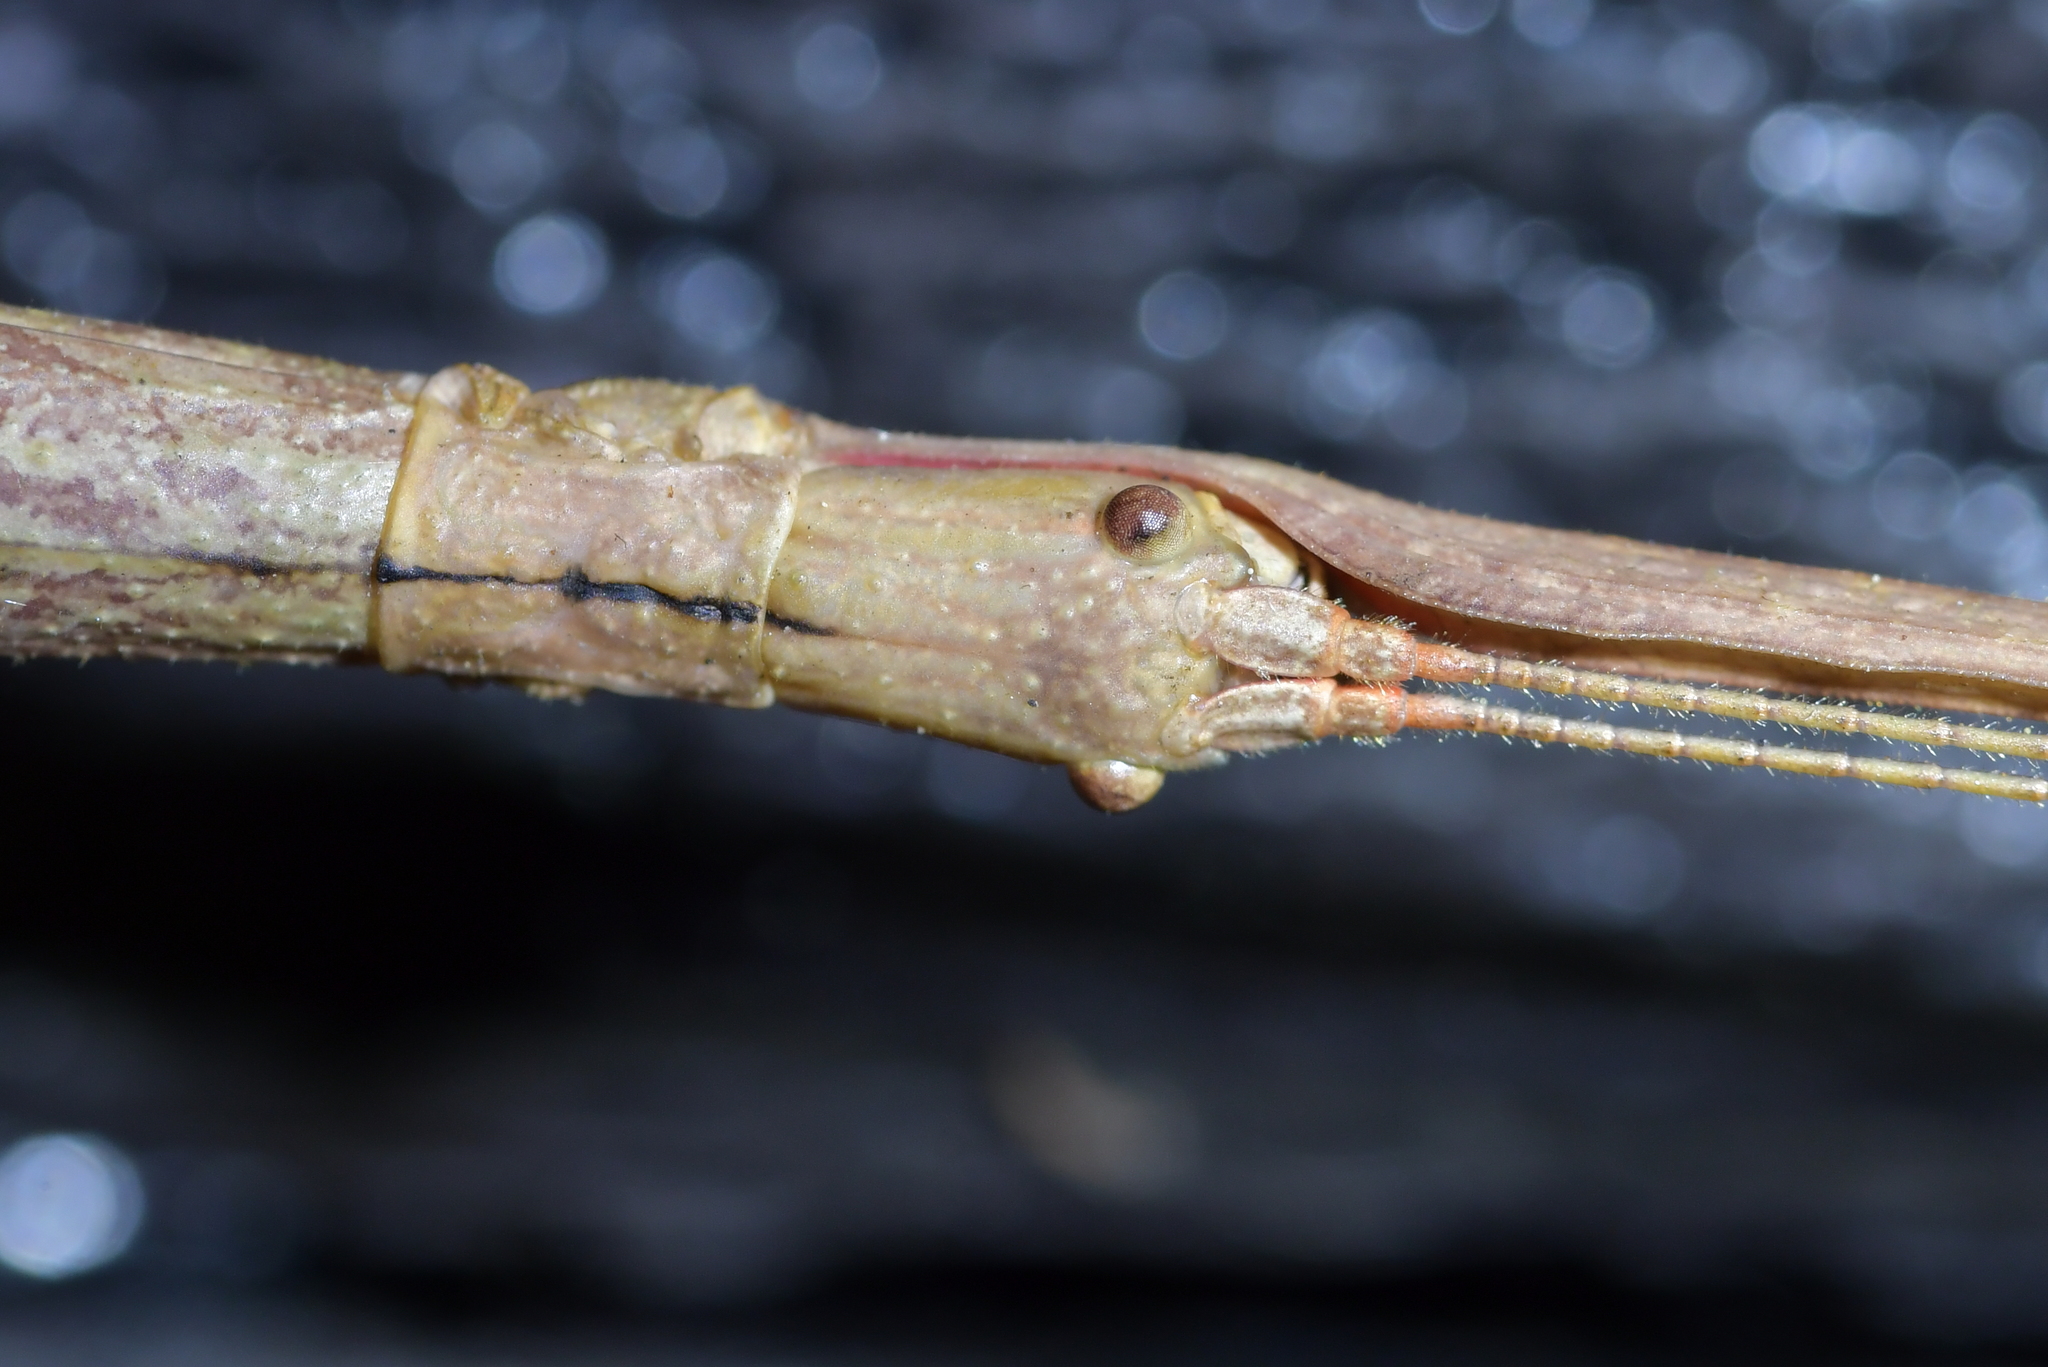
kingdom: Animalia
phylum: Arthropoda
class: Insecta
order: Phasmida
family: Phasmatidae
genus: Clitarchus
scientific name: Clitarchus hookeri
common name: Smooth stick insect
